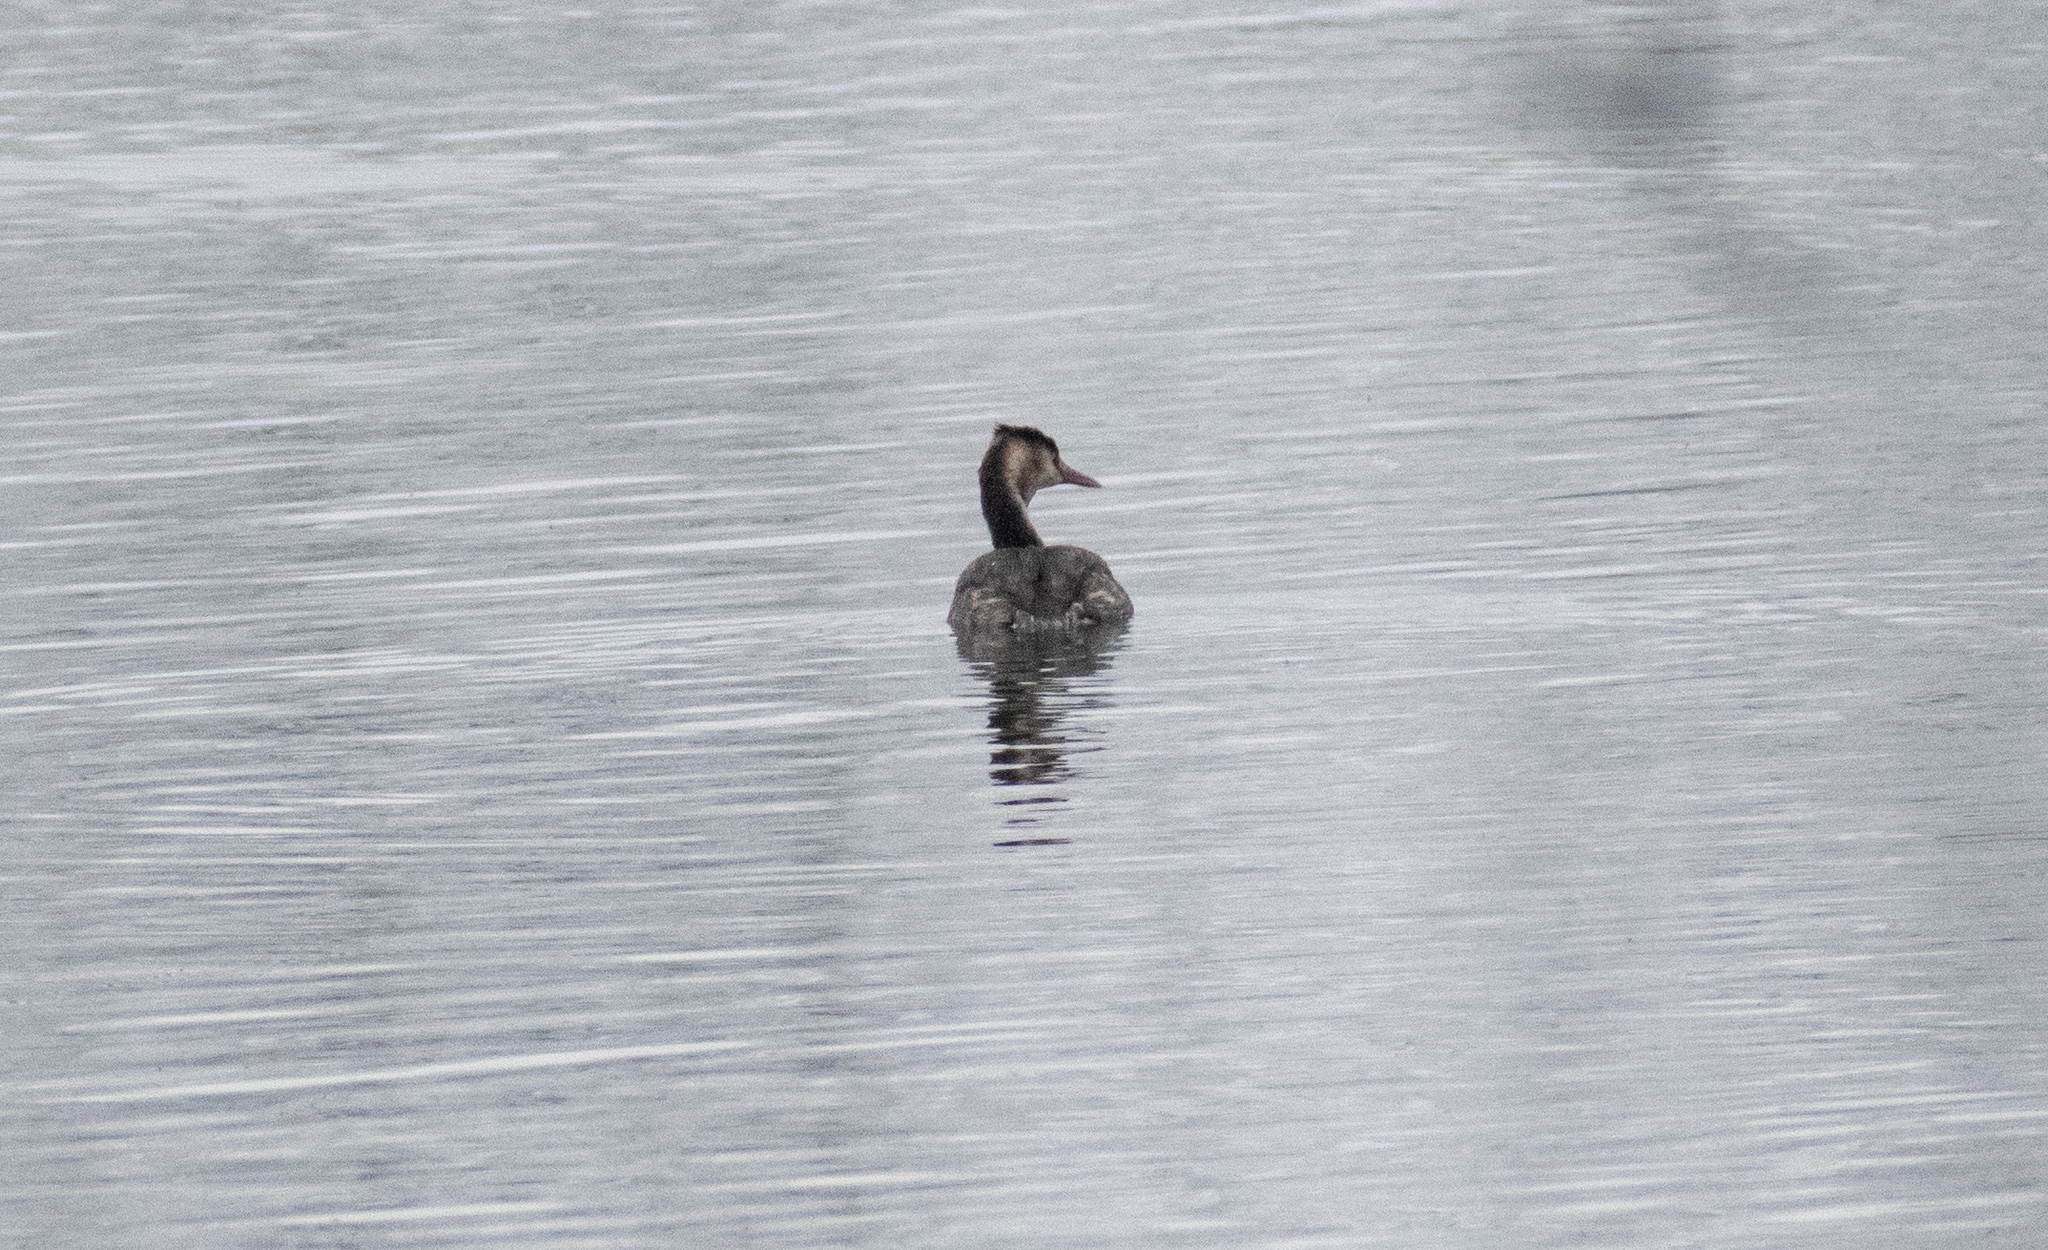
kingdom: Animalia
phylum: Chordata
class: Aves
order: Podicipediformes
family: Podicipedidae
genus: Podiceps
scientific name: Podiceps cristatus
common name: Great crested grebe
